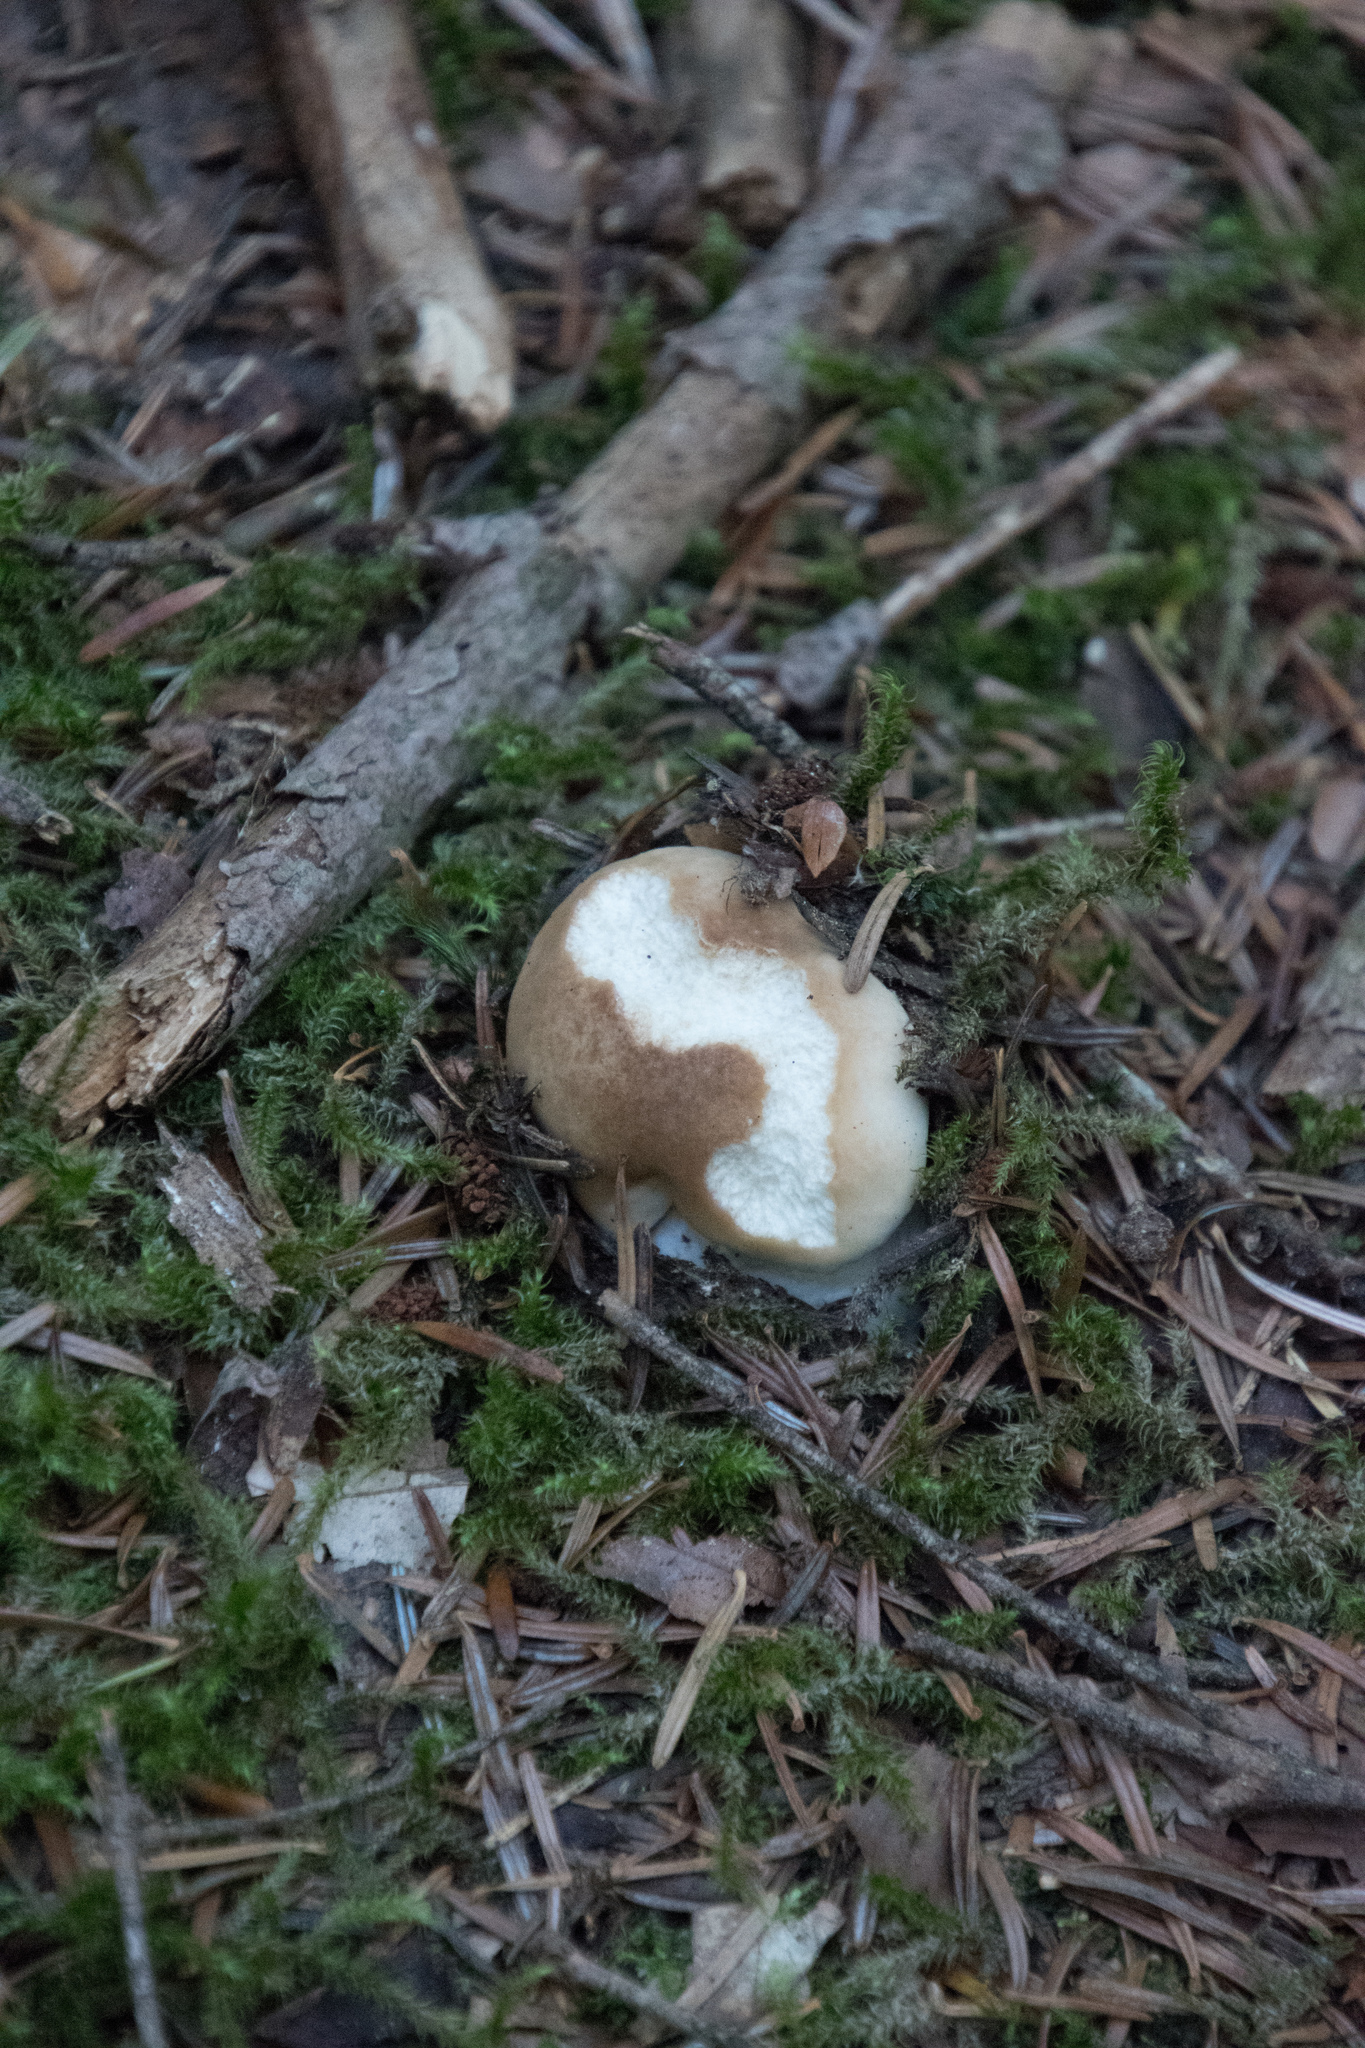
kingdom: Fungi
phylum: Basidiomycota
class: Agaricomycetes
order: Boletales
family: Boletaceae
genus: Boletus
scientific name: Boletus edulis
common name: Cep
